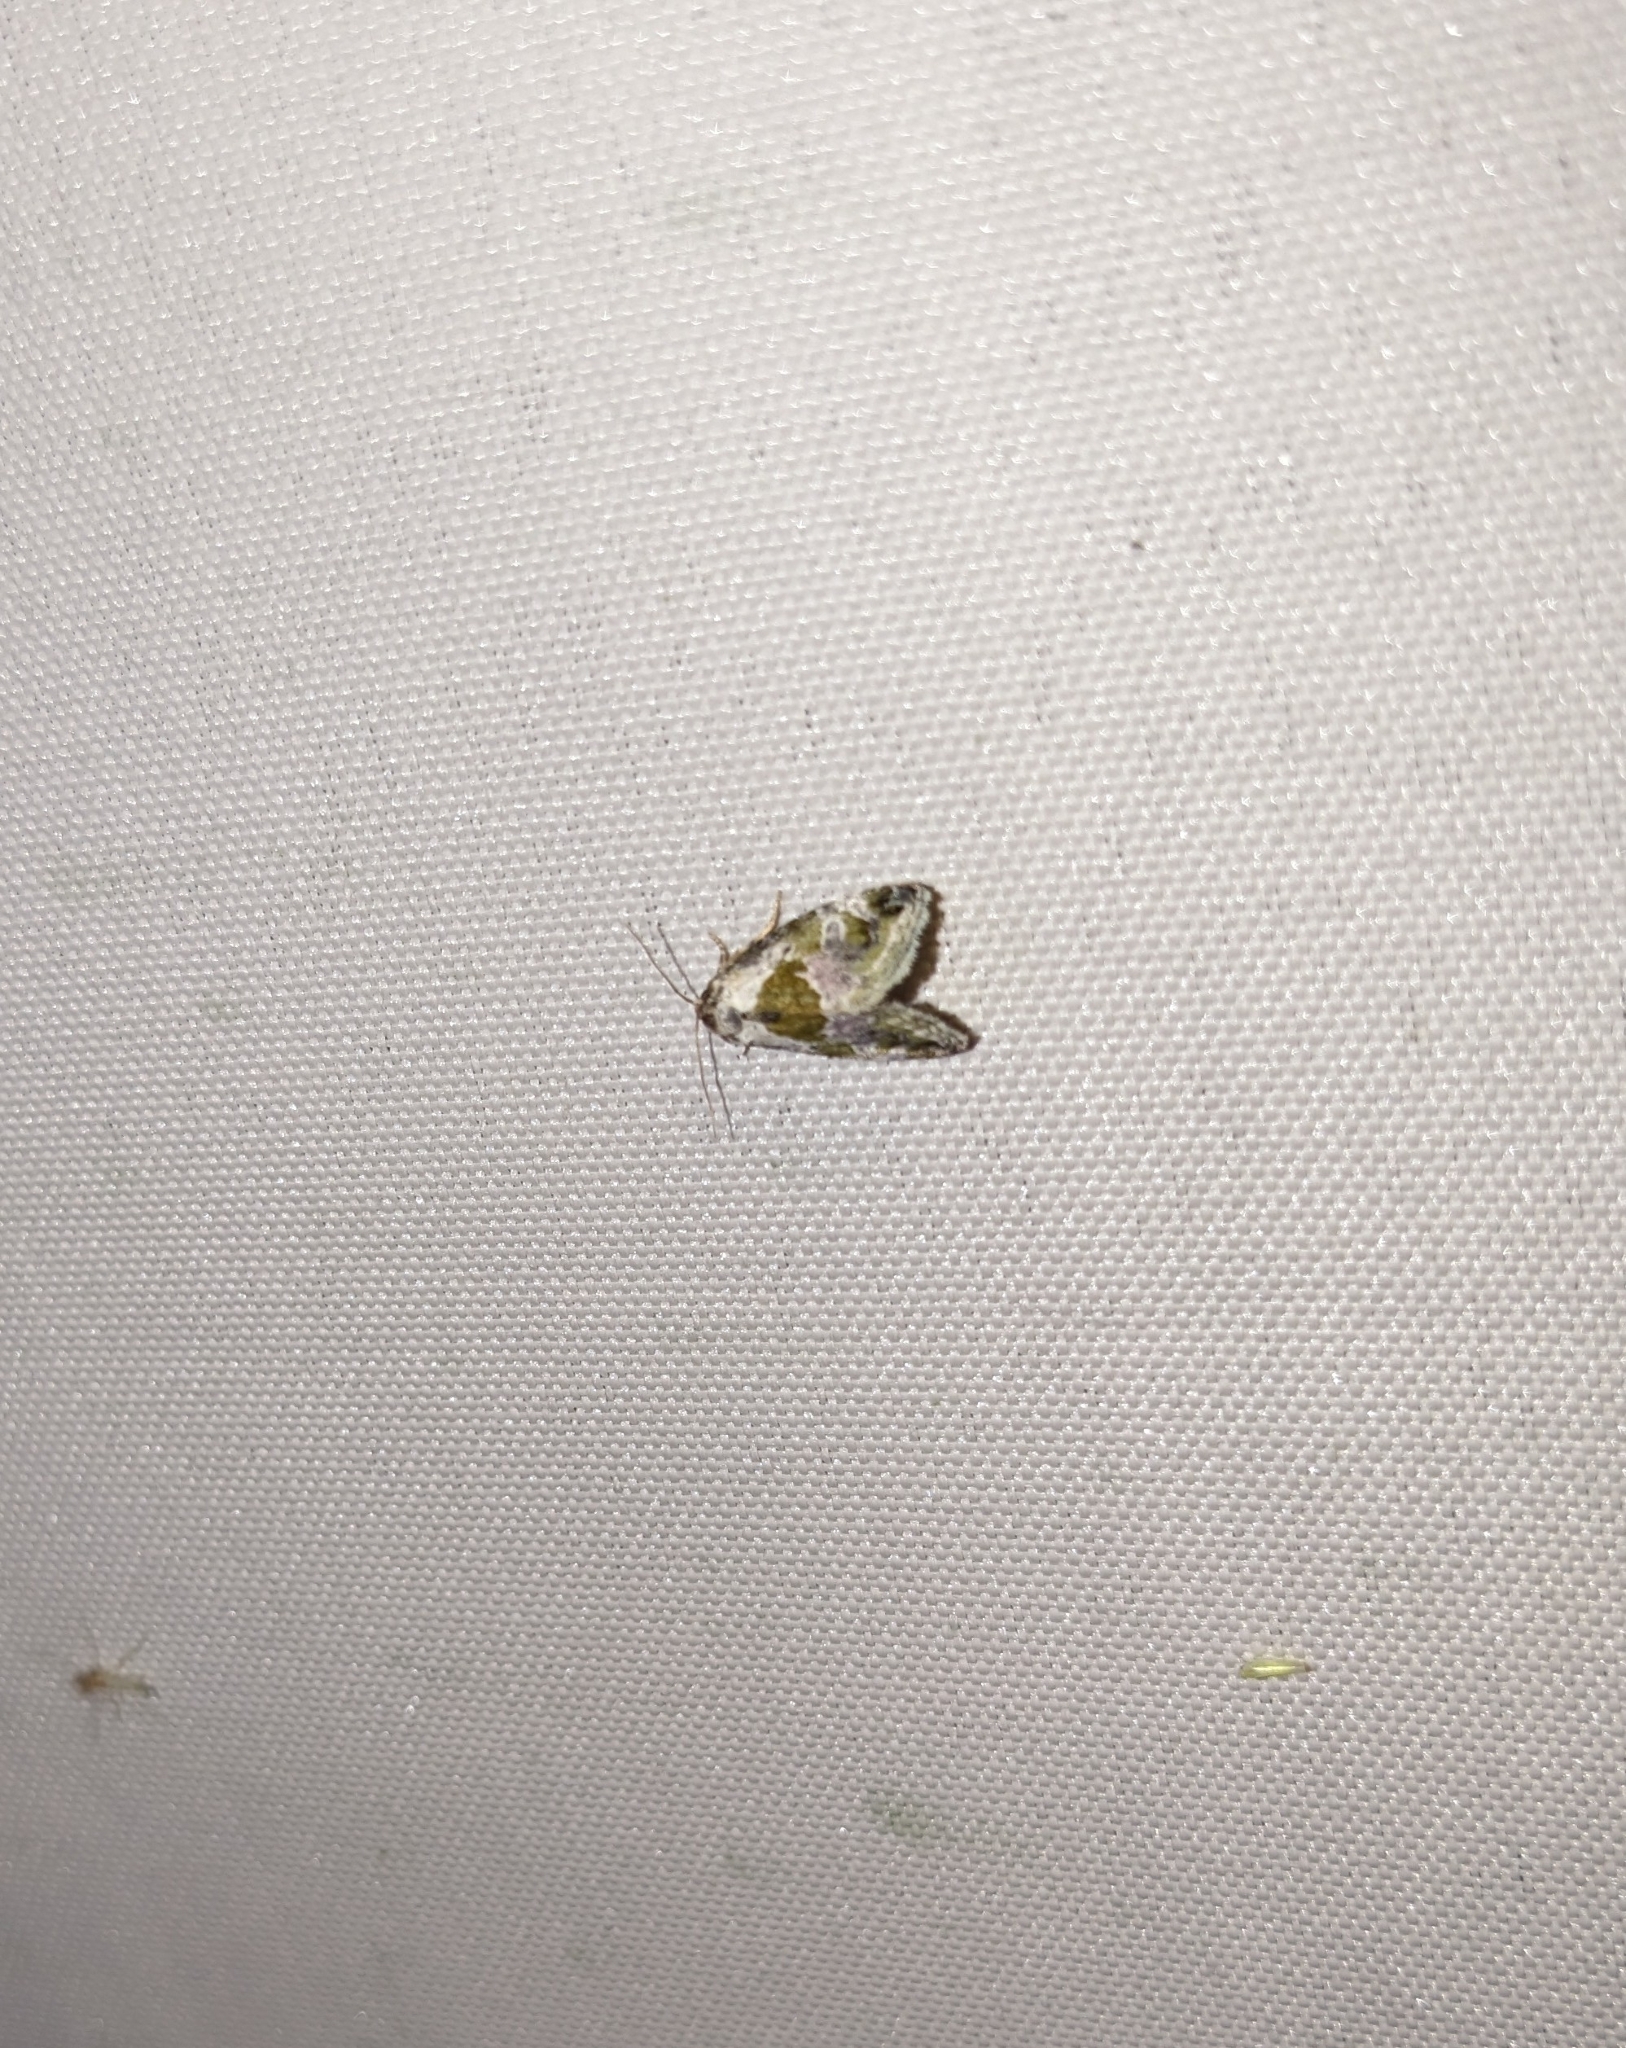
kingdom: Animalia
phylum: Arthropoda
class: Insecta
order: Lepidoptera
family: Noctuidae
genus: Maliattha
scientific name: Maliattha synochitis
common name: Black-dotted glyph
